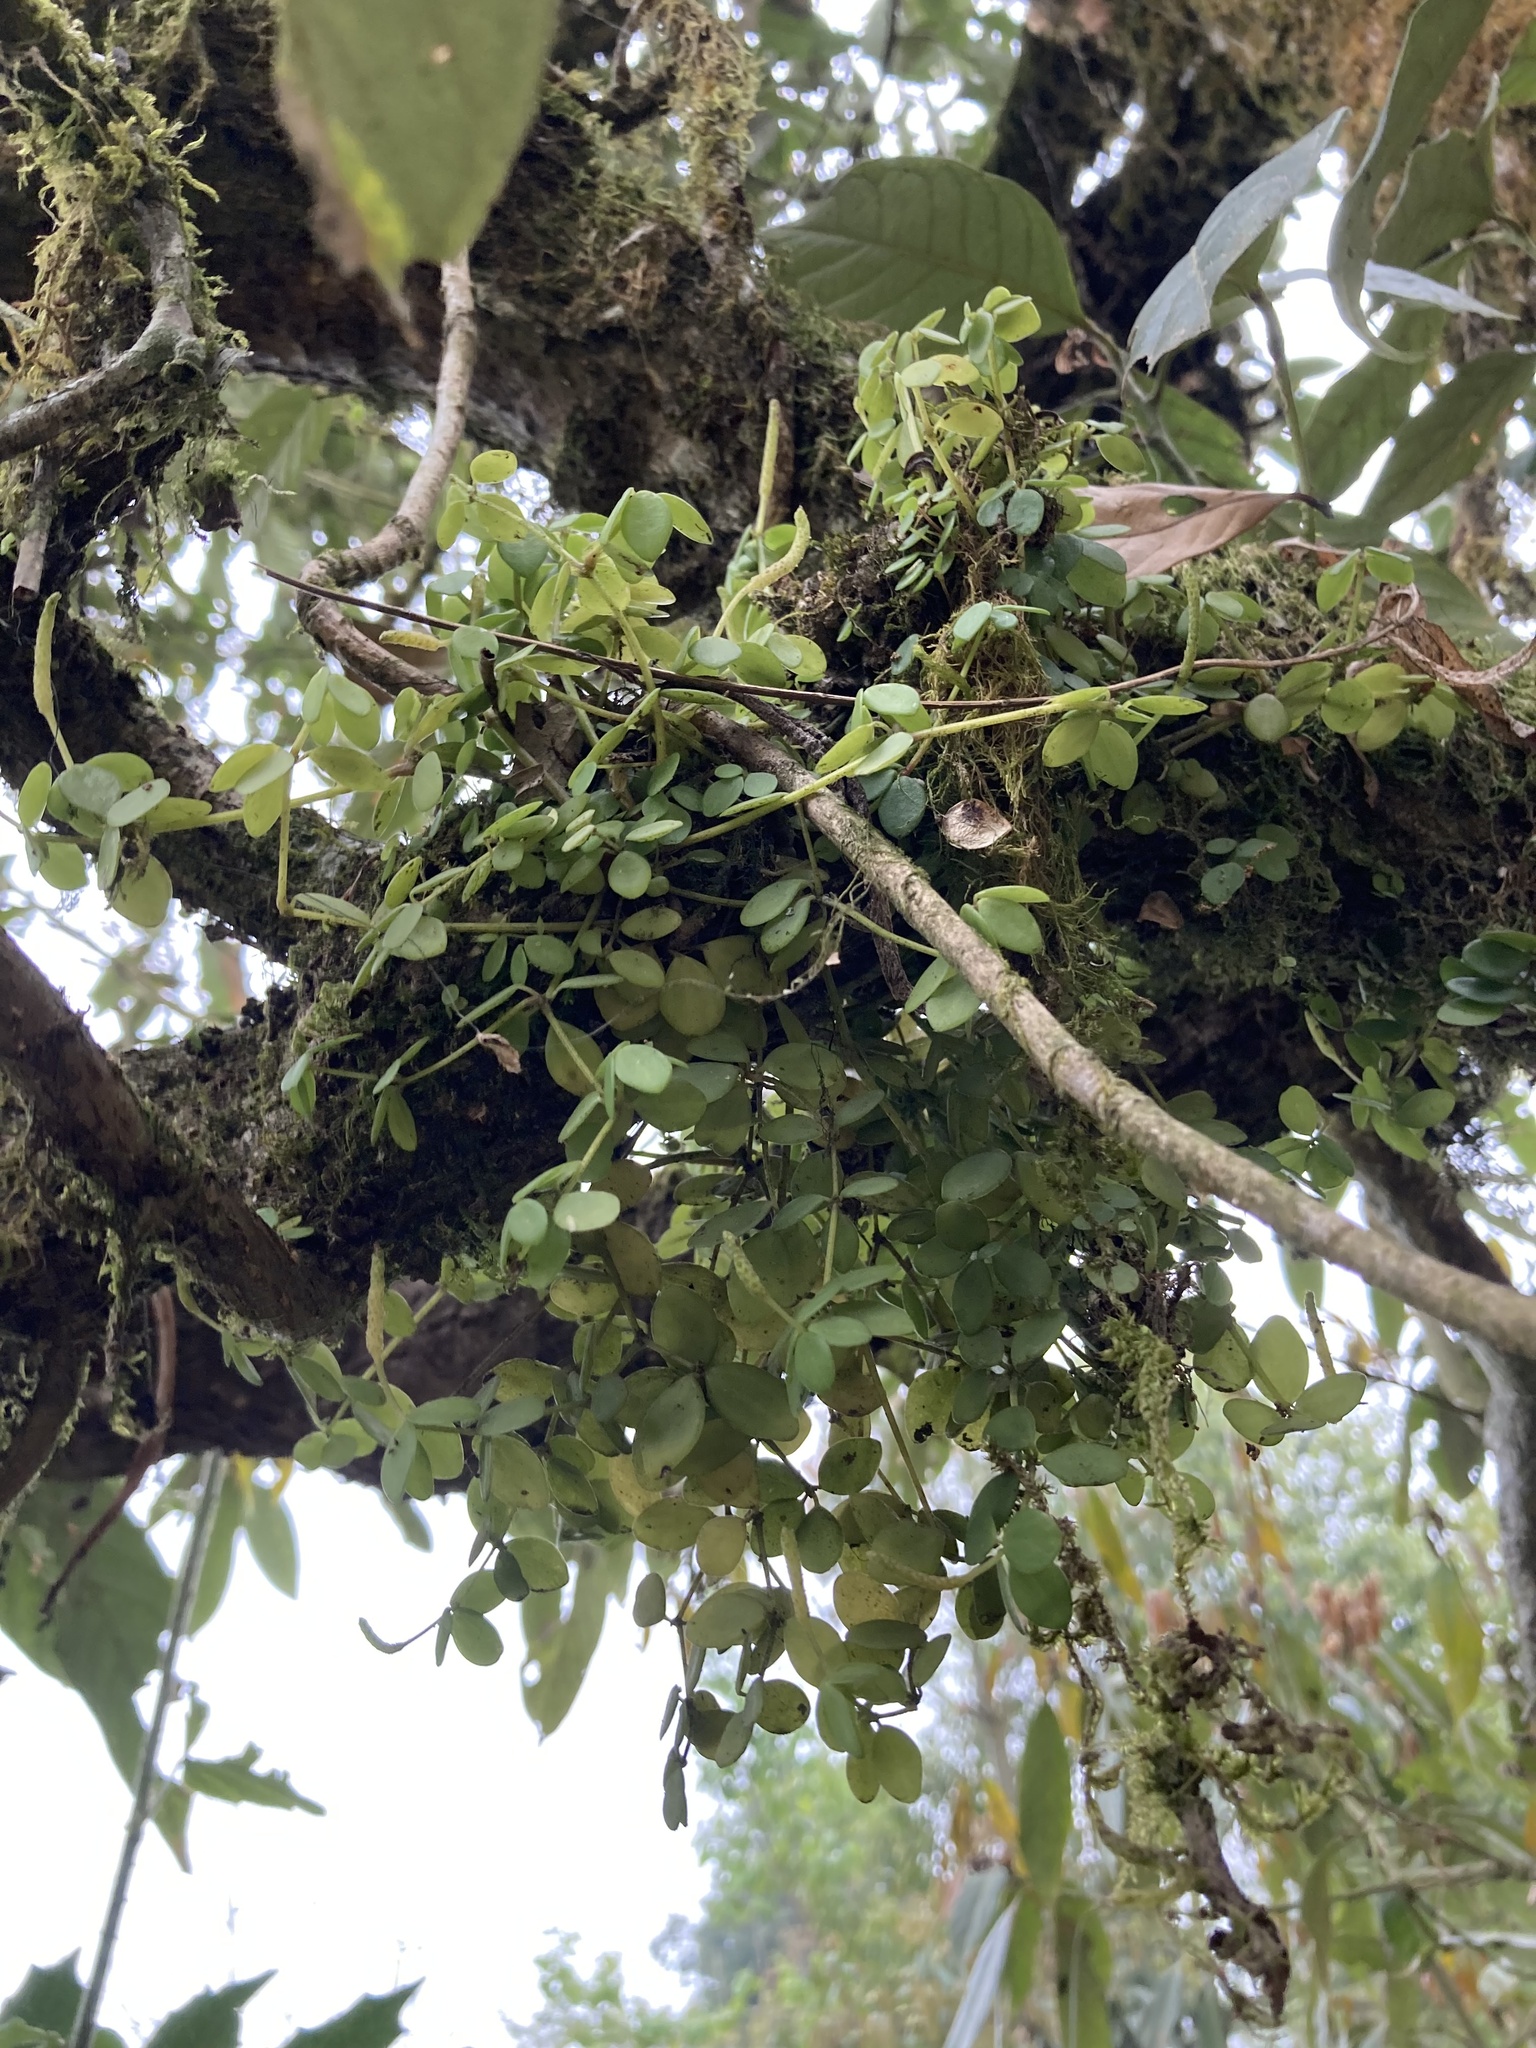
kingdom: Plantae
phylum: Tracheophyta
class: Magnoliopsida
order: Piperales
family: Piperaceae
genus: Peperomia
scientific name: Peperomia tetraphylla
